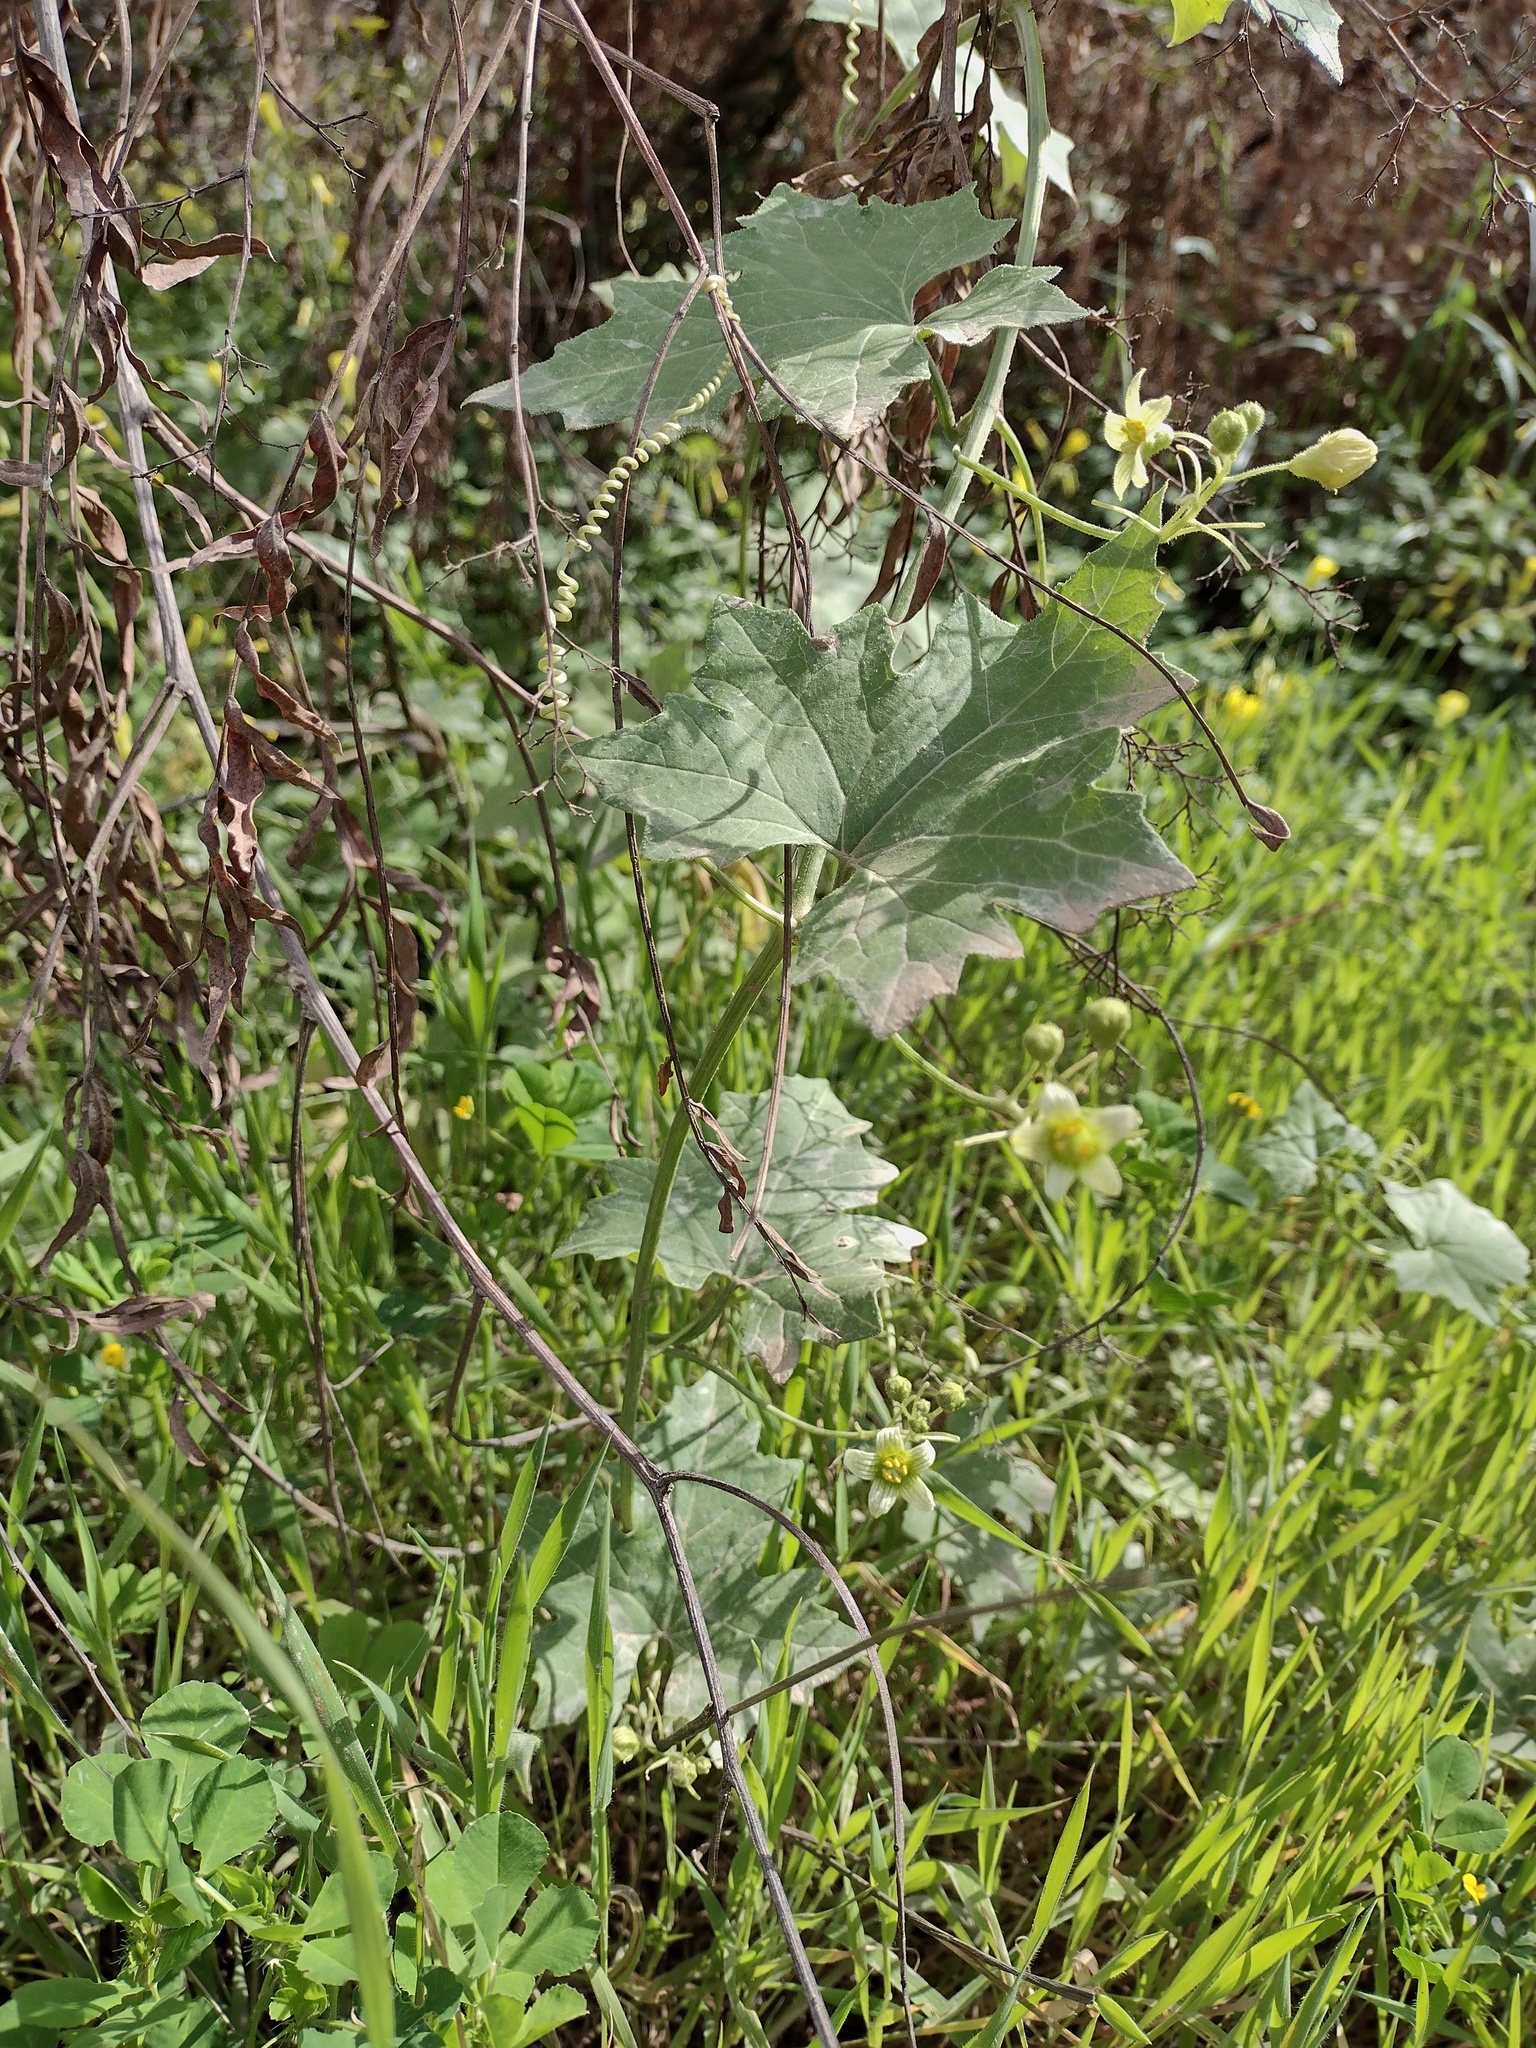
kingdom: Plantae
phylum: Tracheophyta
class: Magnoliopsida
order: Cucurbitales
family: Cucurbitaceae
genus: Bryonia
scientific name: Bryonia cretica
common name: Cretan bryony
